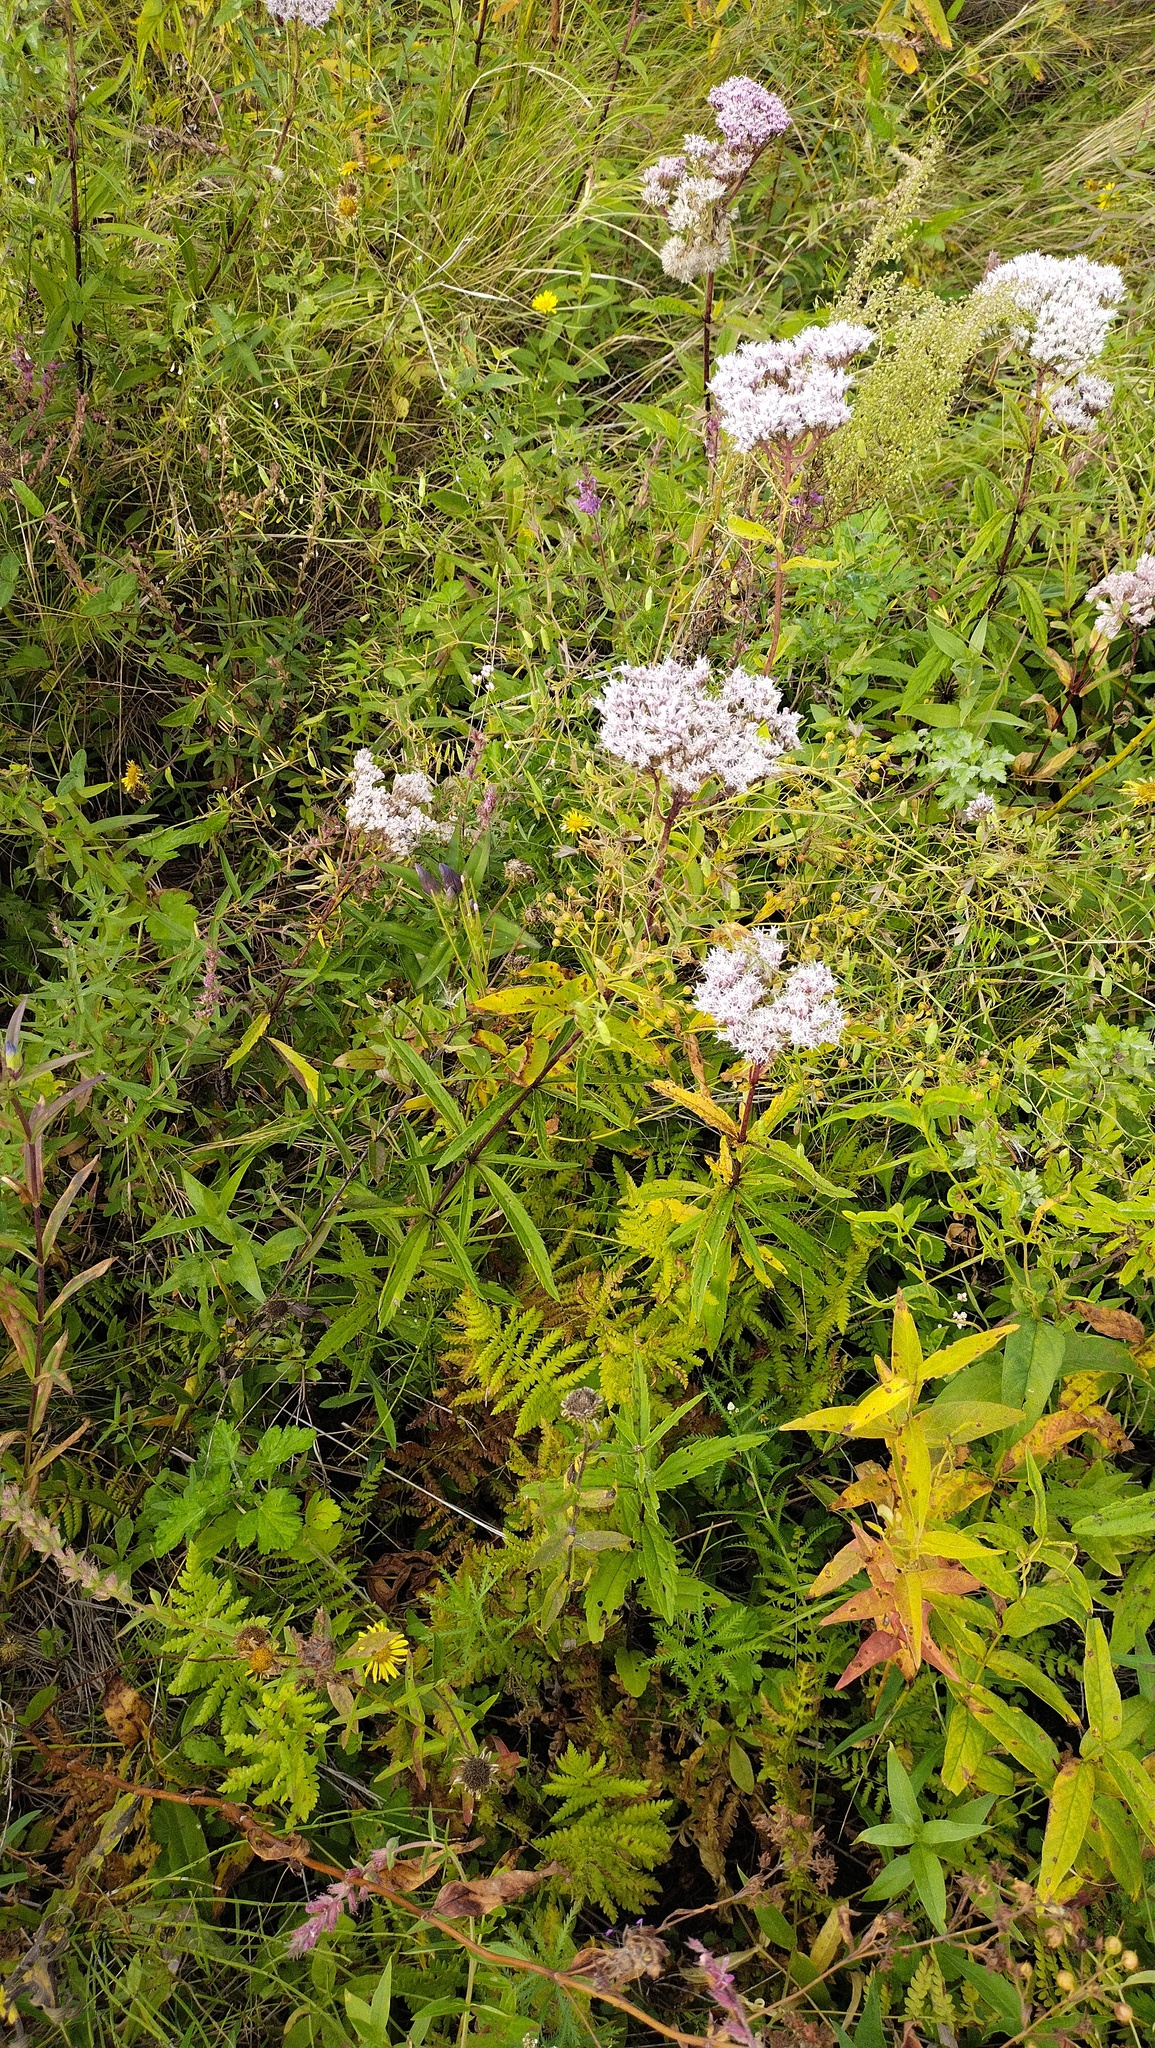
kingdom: Plantae
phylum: Tracheophyta
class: Magnoliopsida
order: Asterales
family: Asteraceae
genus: Eupatorium
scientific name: Eupatorium lindleyanum
